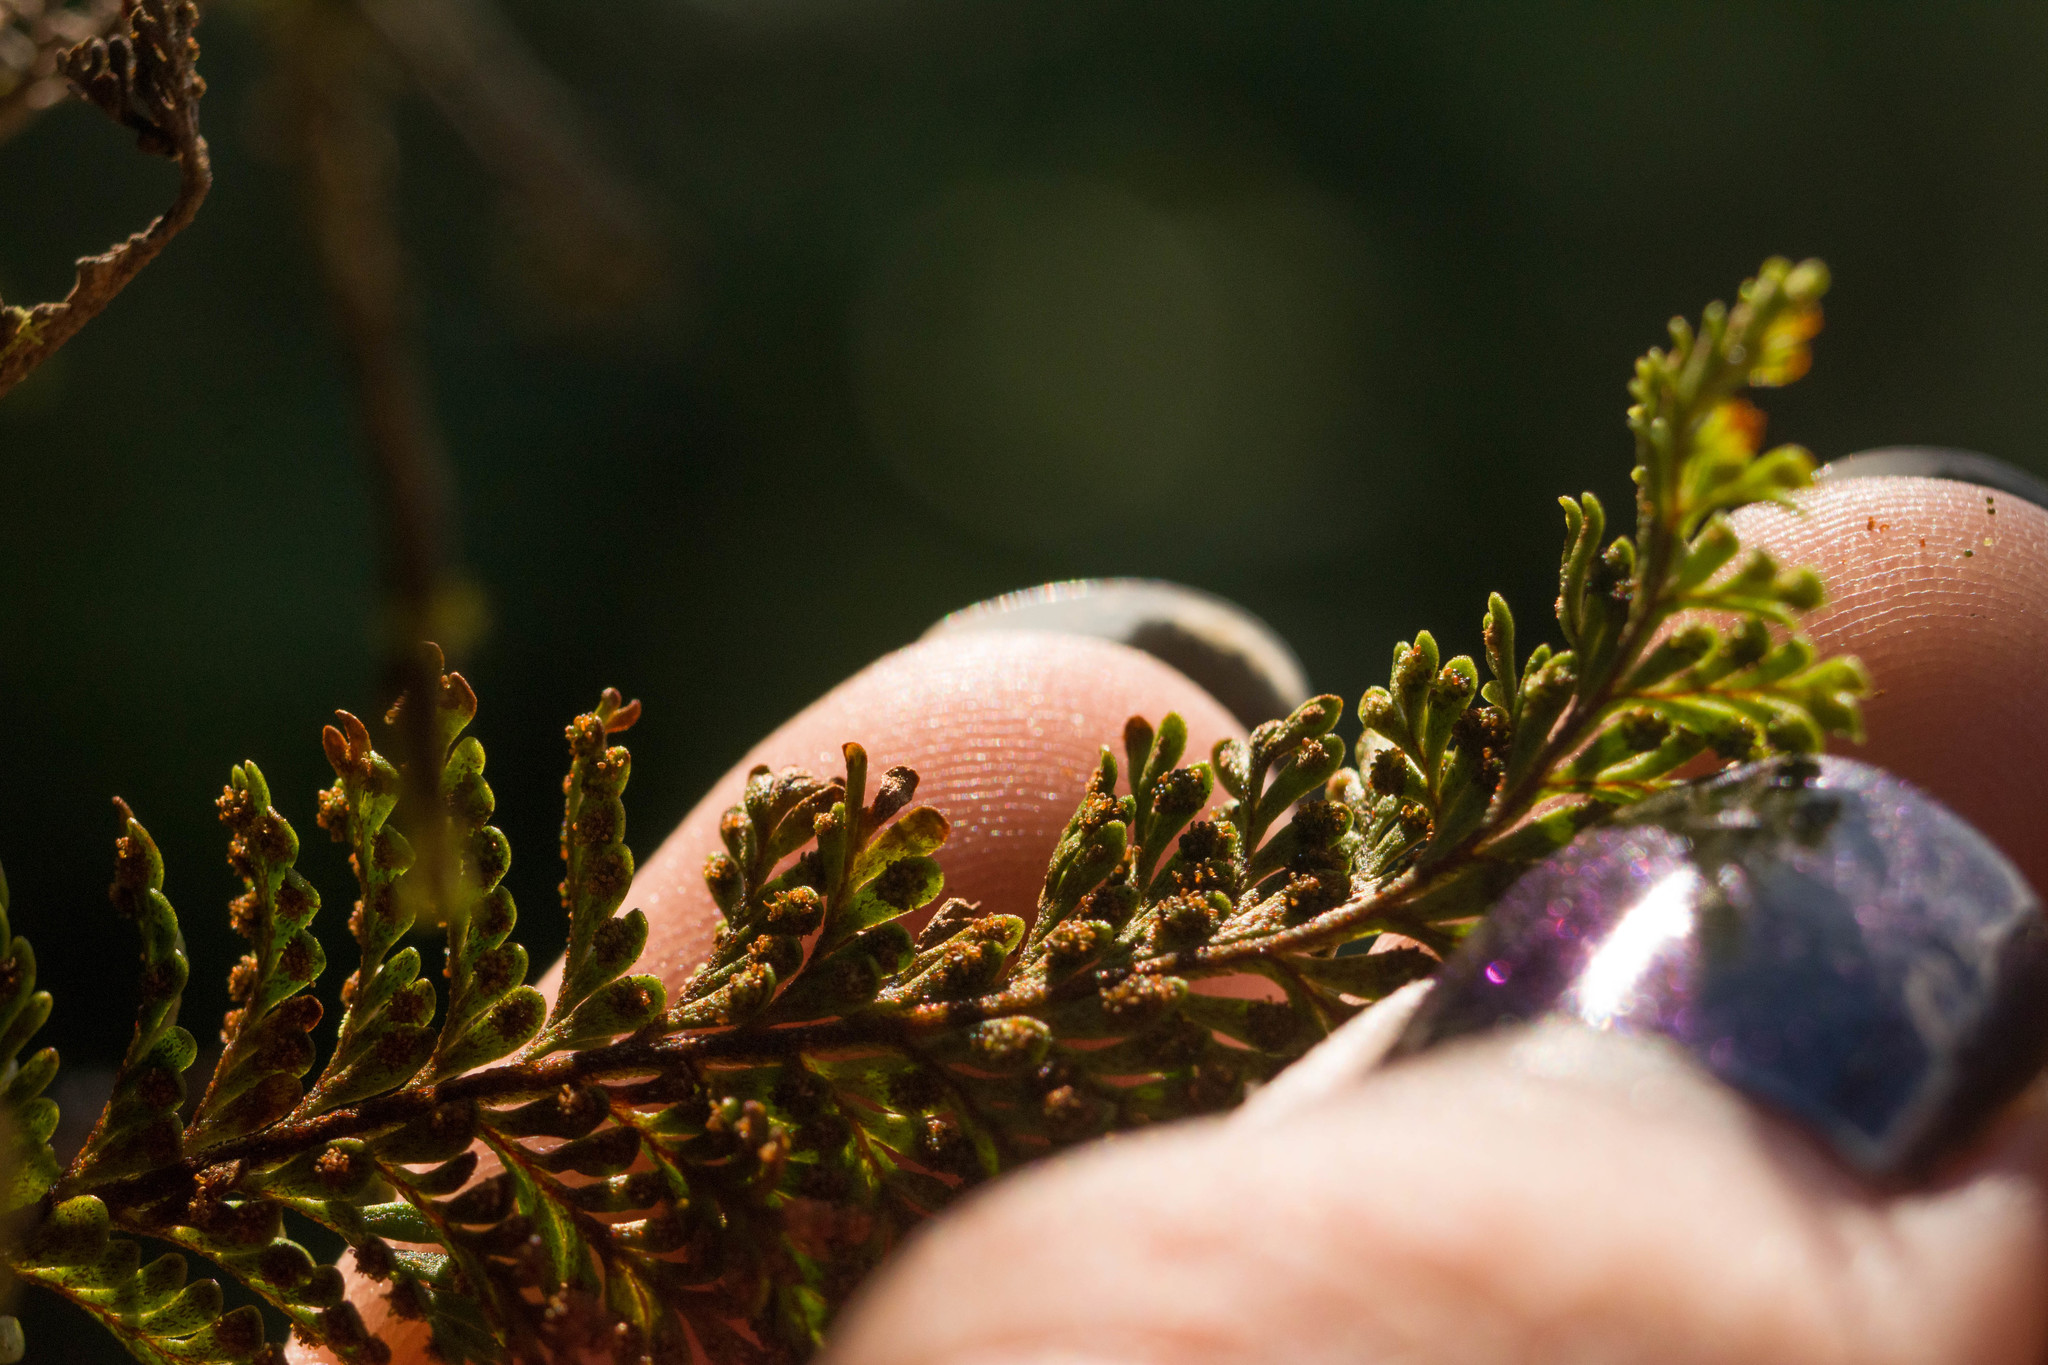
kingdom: Plantae
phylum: Tracheophyta
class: Polypodiopsida
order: Polypodiales
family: Polypodiaceae
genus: Adenophorus
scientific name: Adenophorus tamariscinus
